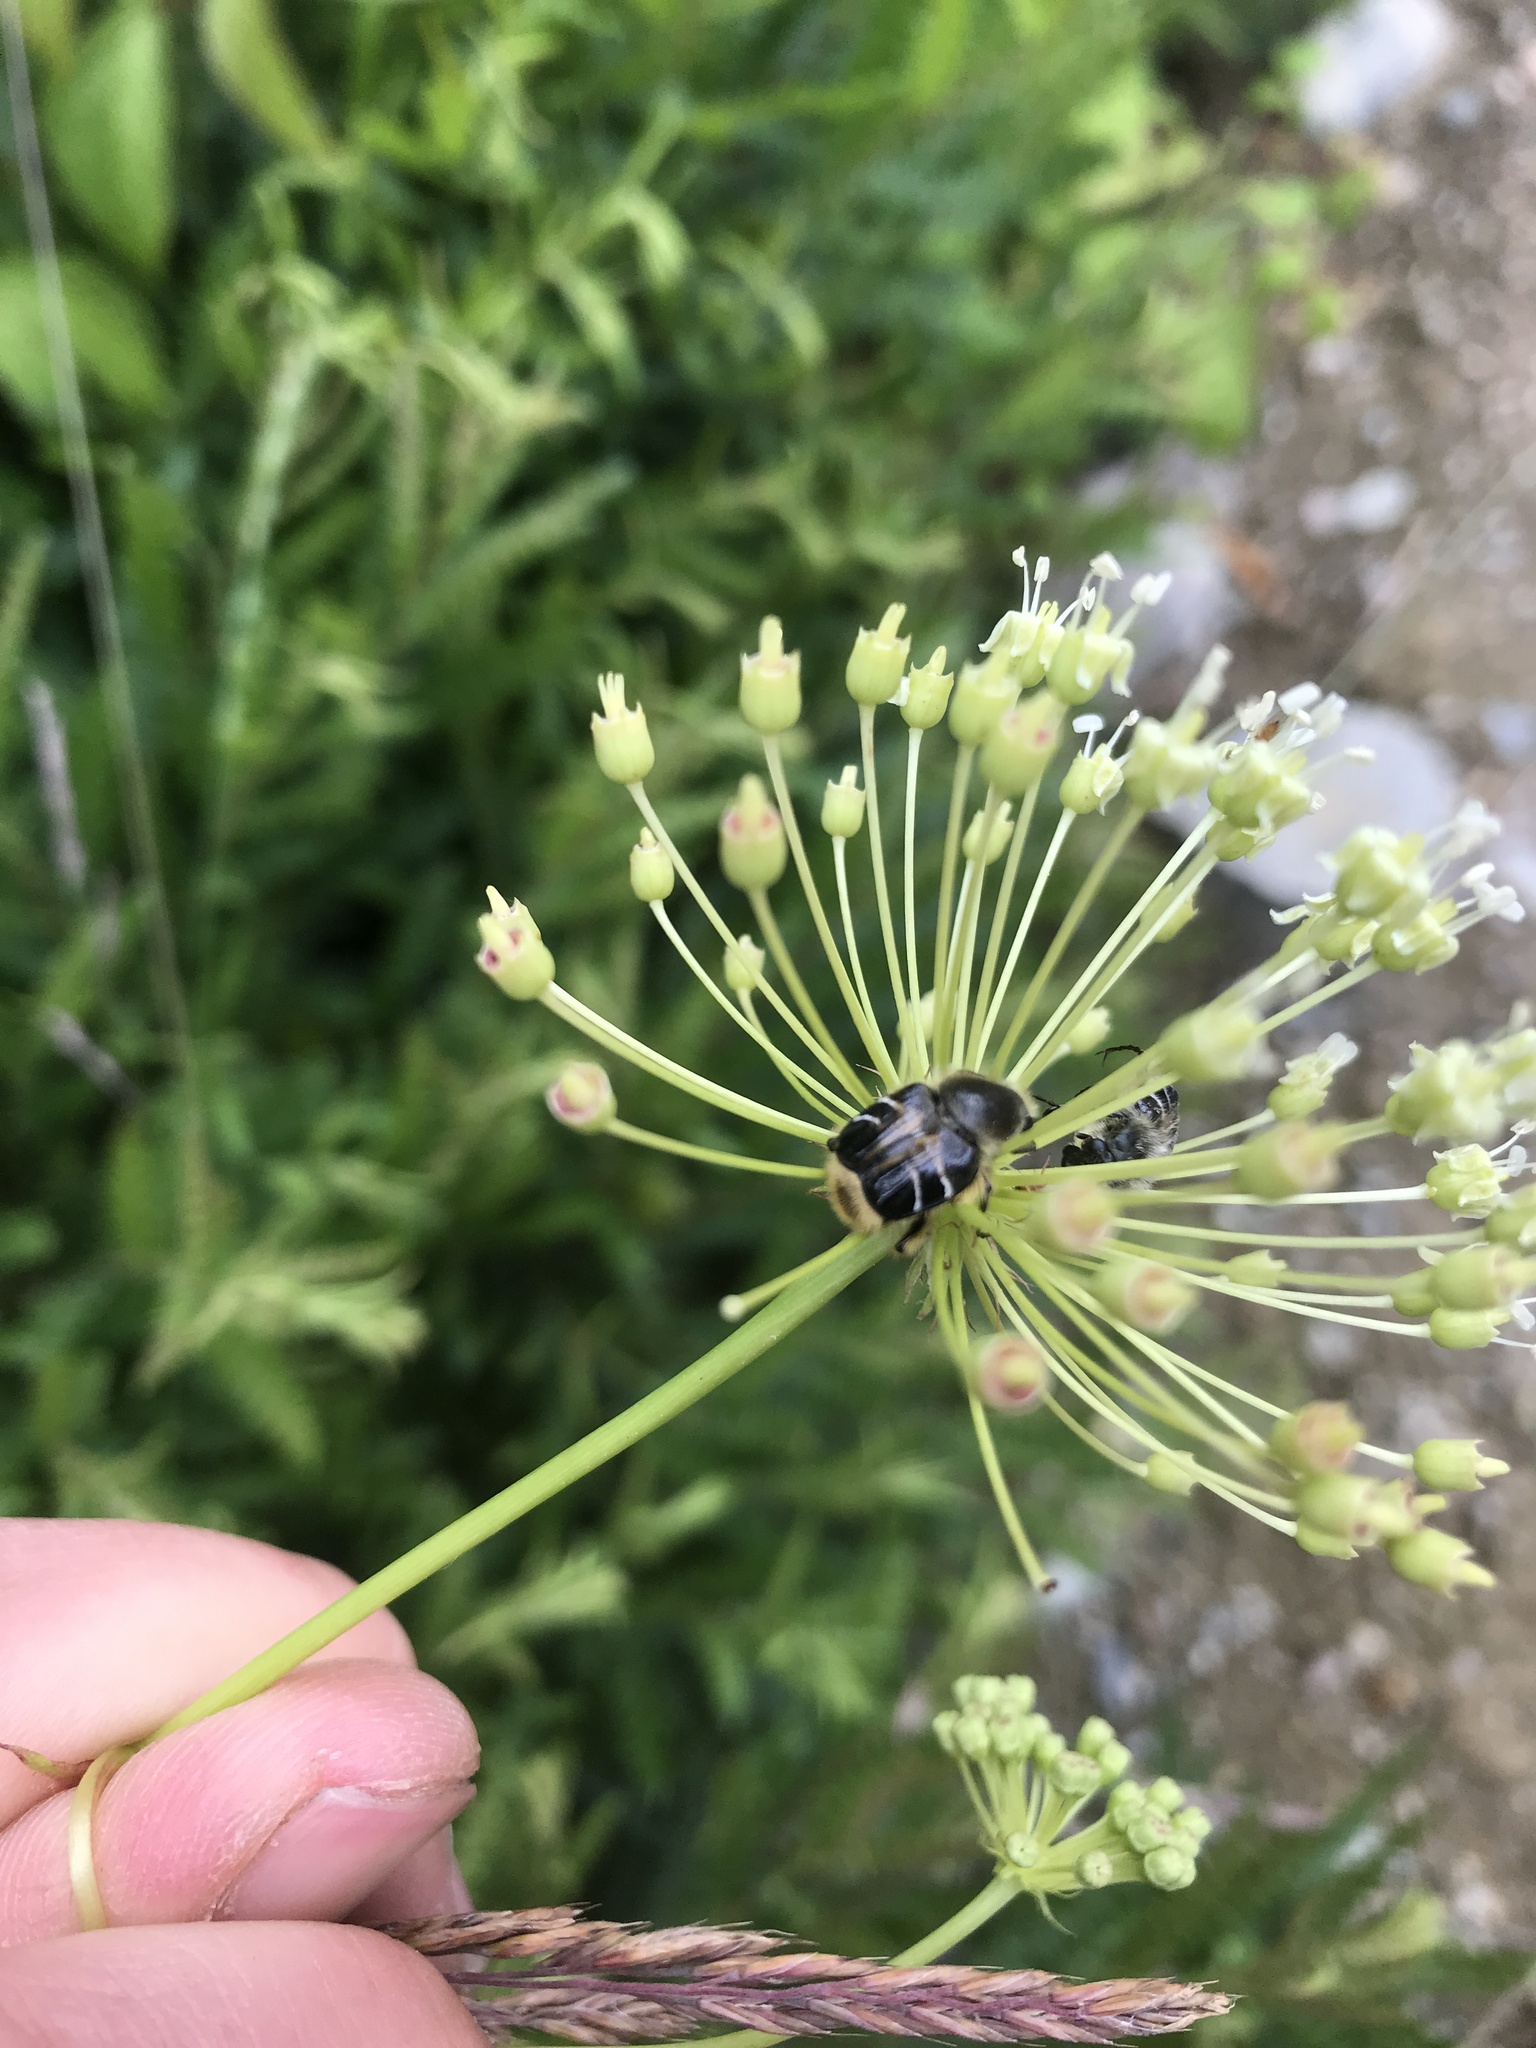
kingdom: Animalia
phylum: Arthropoda
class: Insecta
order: Coleoptera
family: Scarabaeidae
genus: Trichiotinus
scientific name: Trichiotinus assimilis
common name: Bee-mimic beetle
